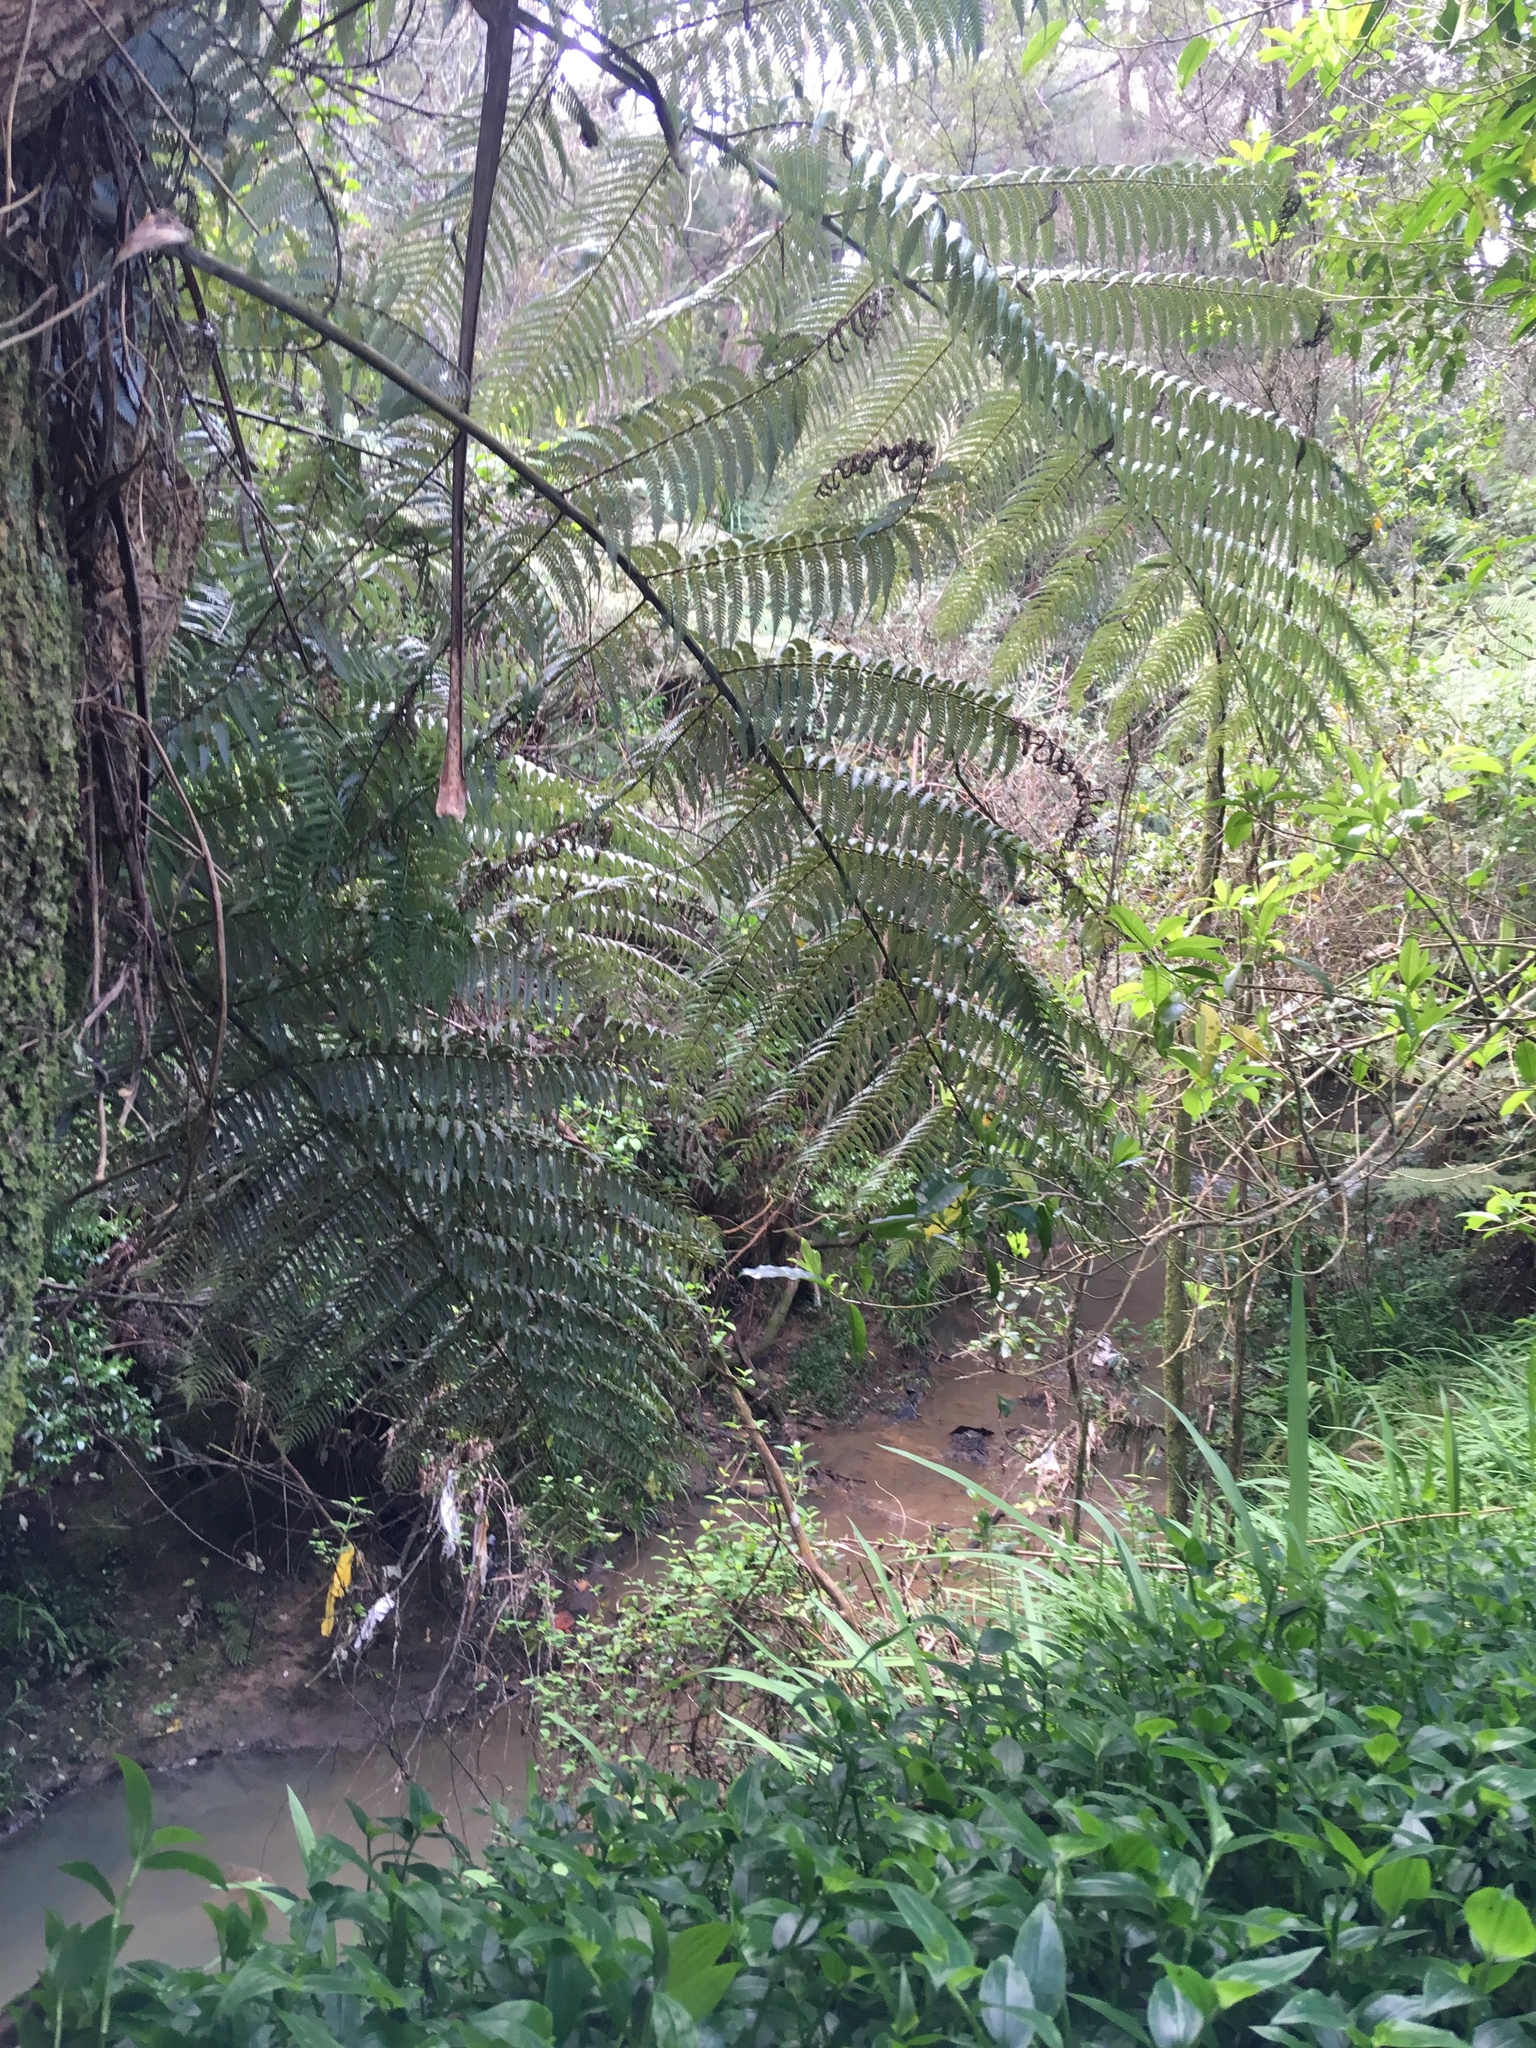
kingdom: Plantae
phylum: Tracheophyta
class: Polypodiopsida
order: Cyatheales
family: Cyatheaceae
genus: Alsophila
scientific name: Alsophila dealbata
